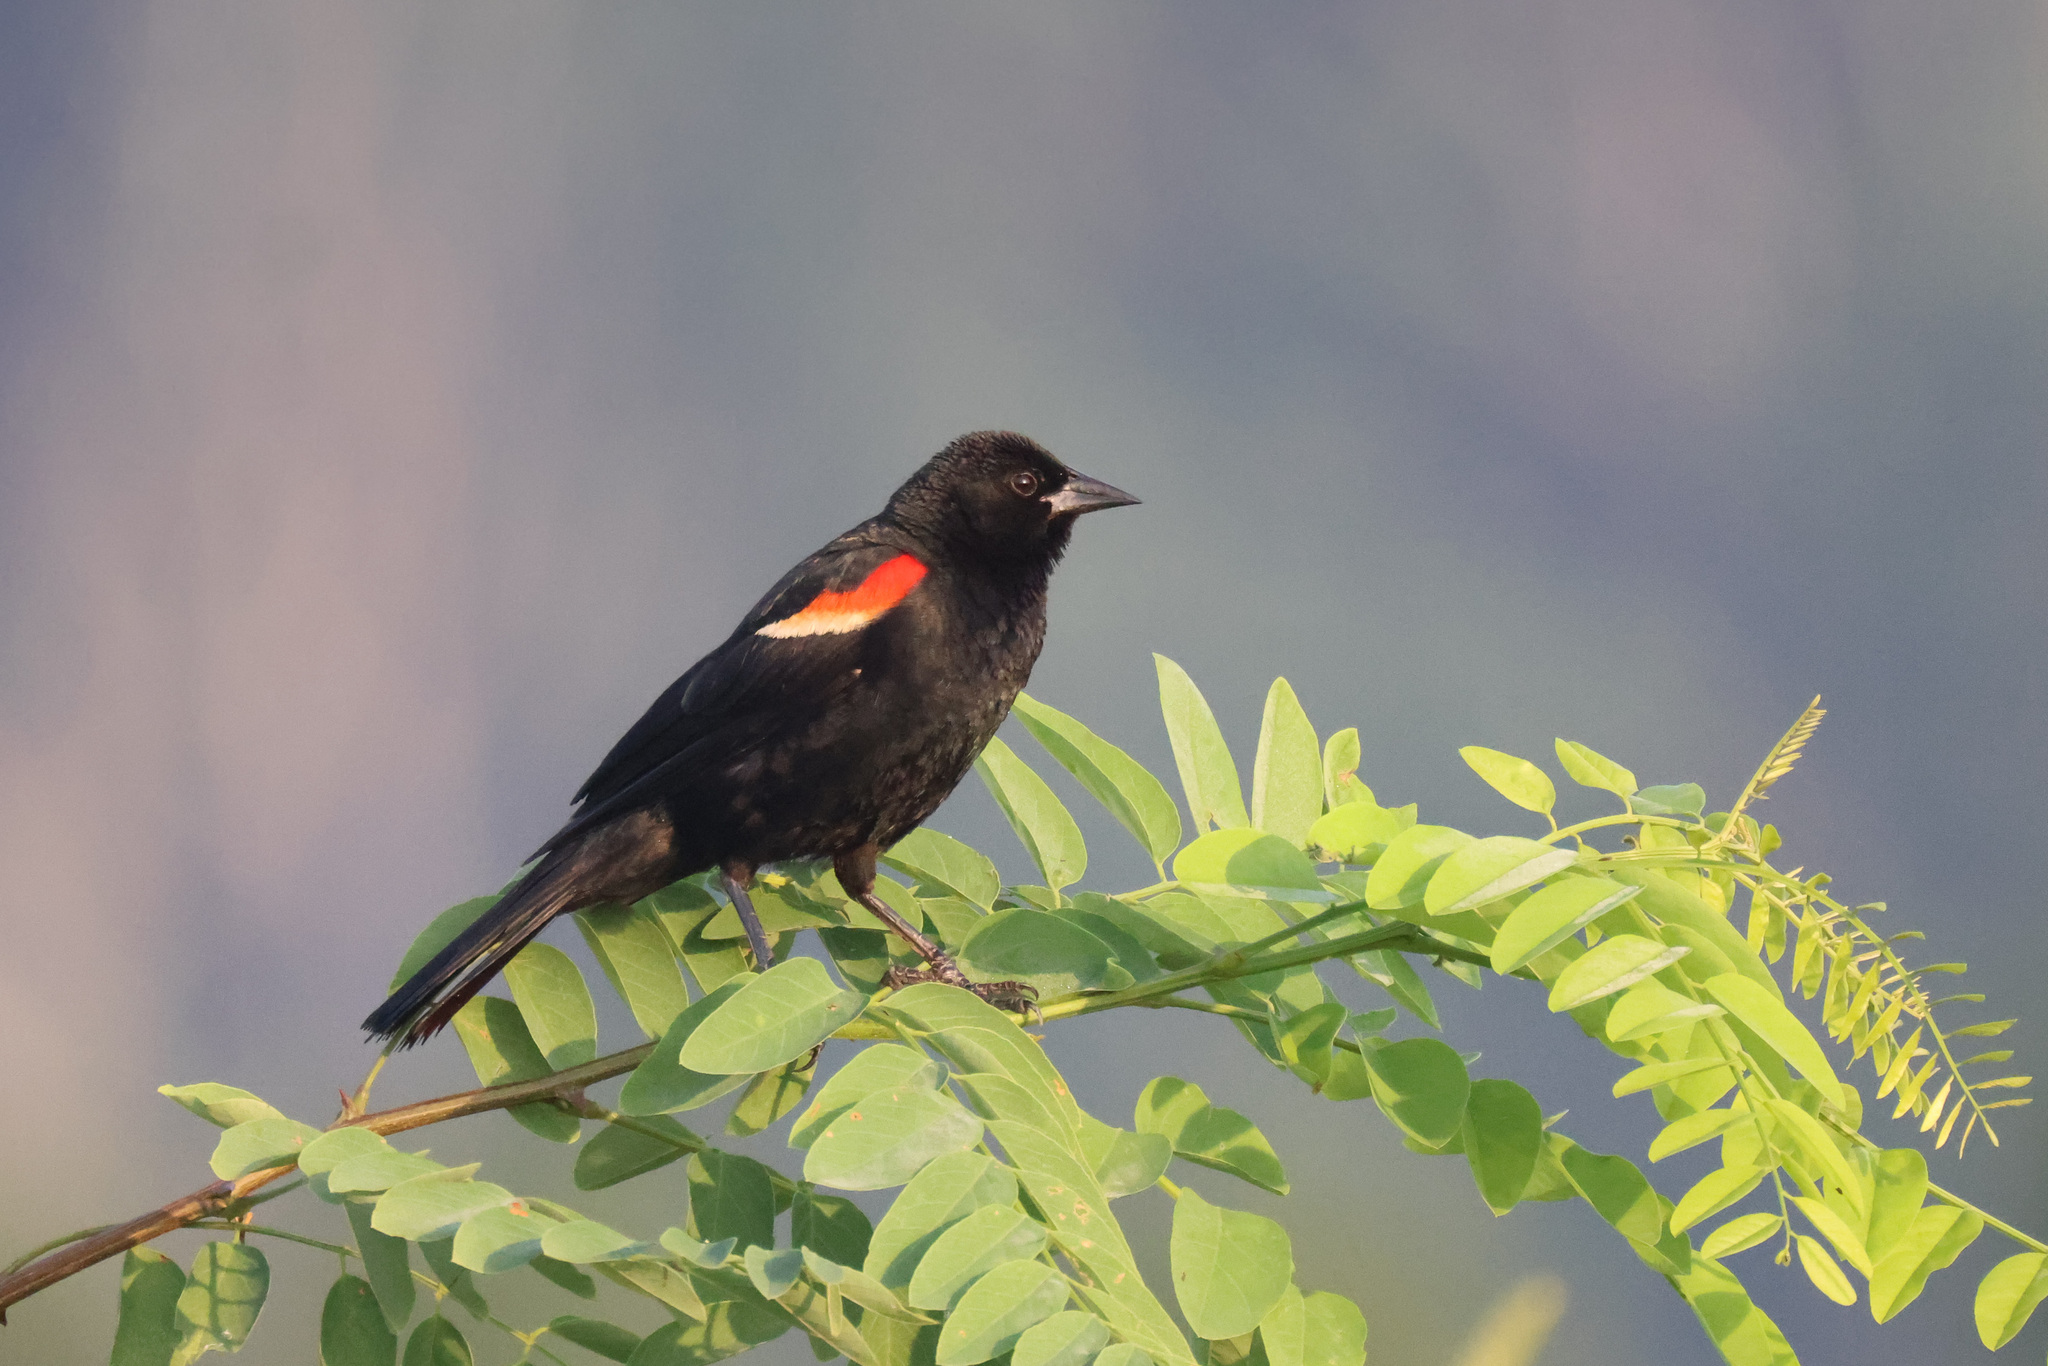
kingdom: Animalia
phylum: Chordata
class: Aves
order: Passeriformes
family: Icteridae
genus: Agelaius
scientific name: Agelaius phoeniceus
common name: Red-winged blackbird
